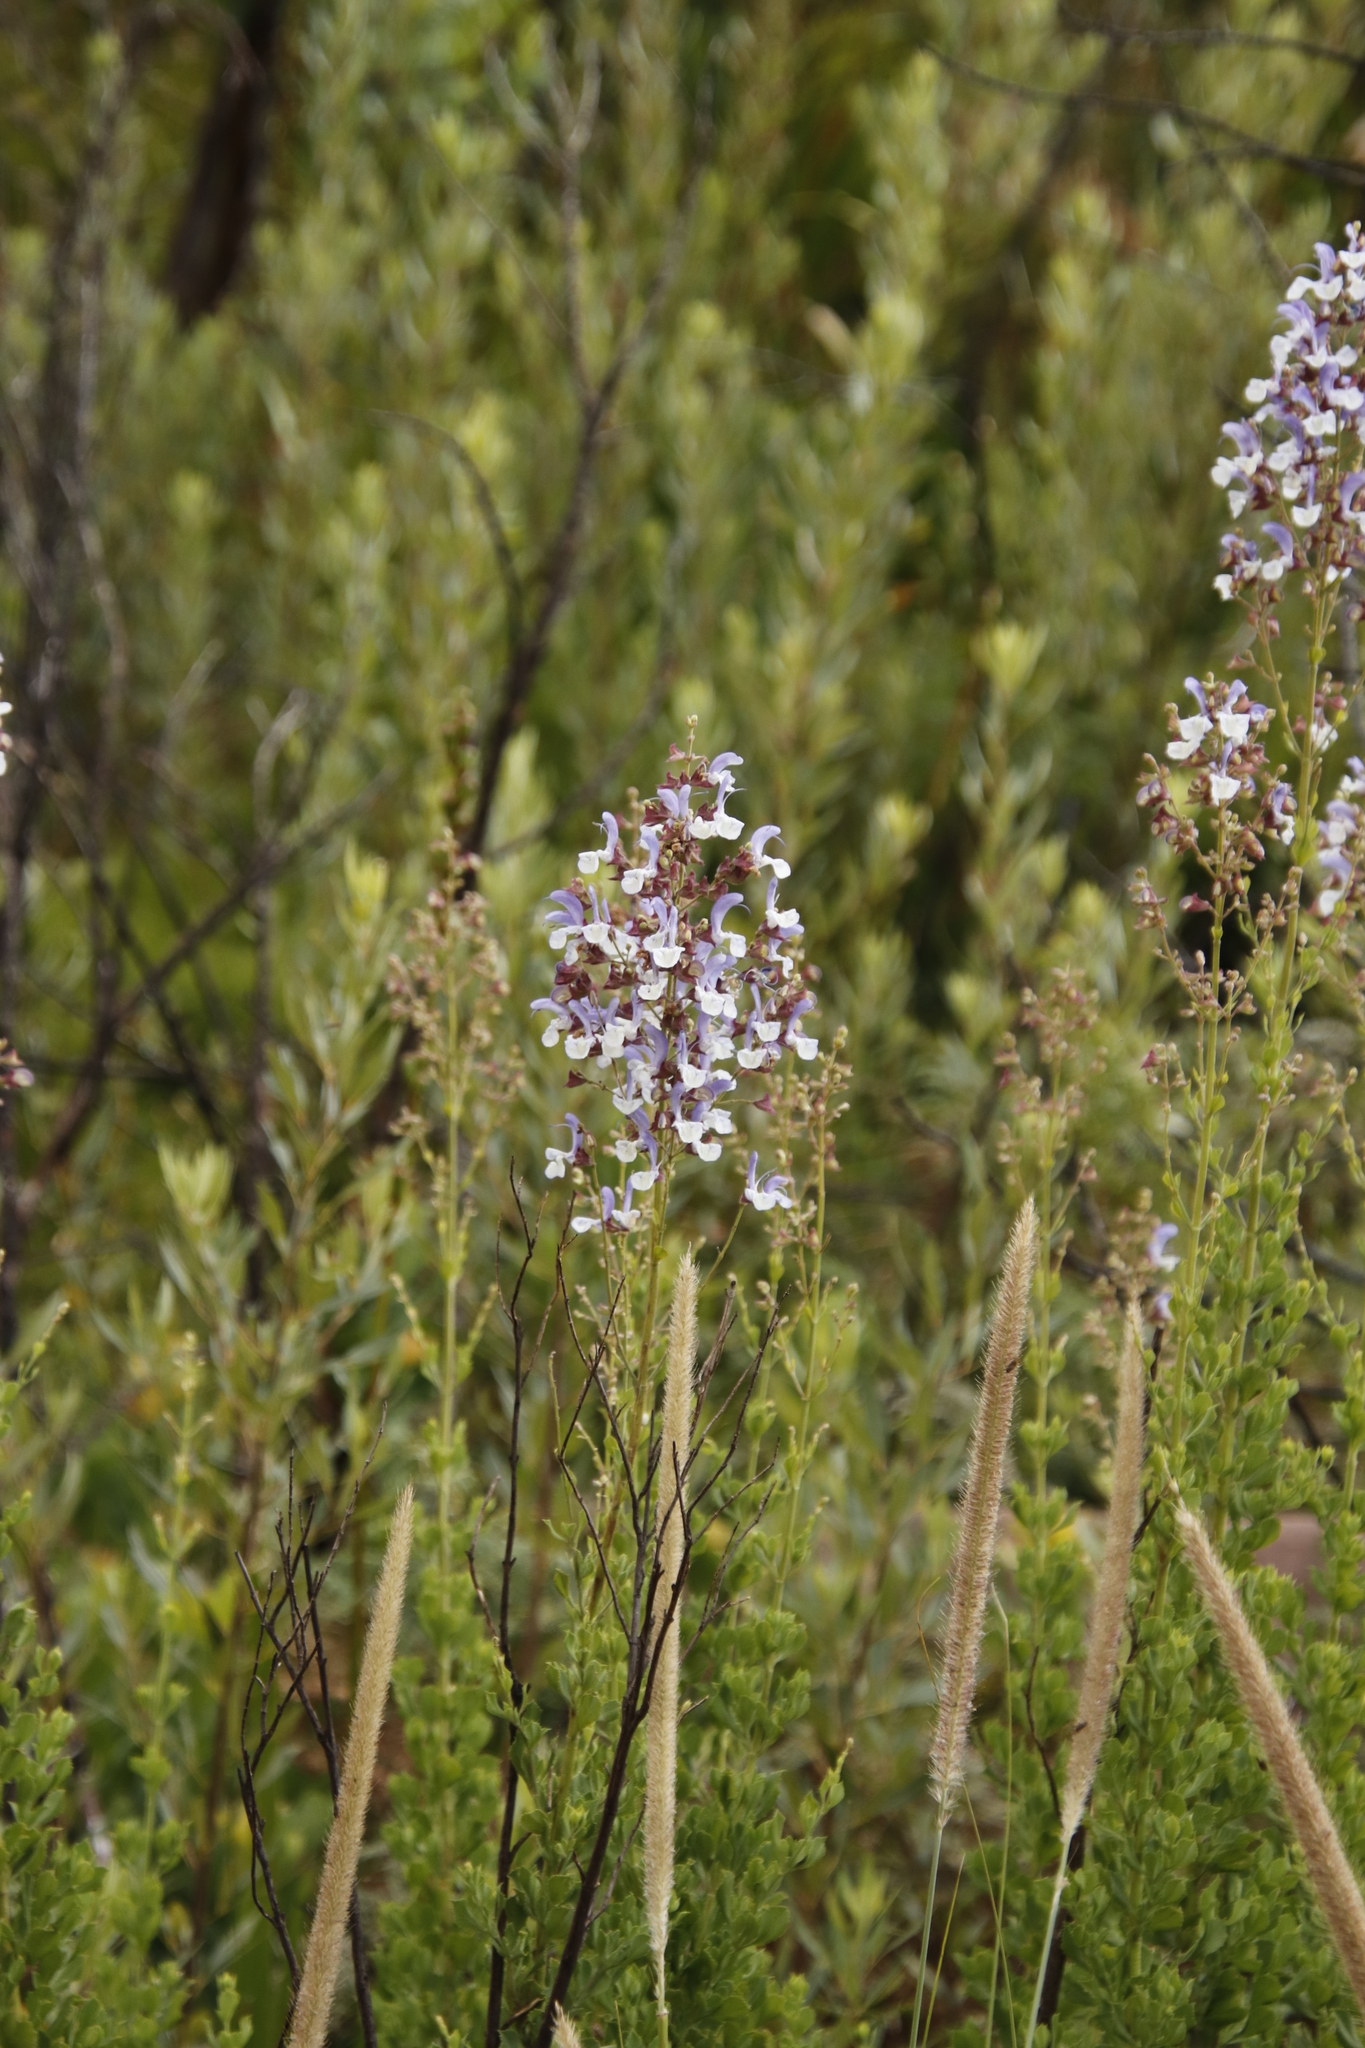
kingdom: Plantae
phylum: Tracheophyta
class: Magnoliopsida
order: Lamiales
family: Lamiaceae
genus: Salvia
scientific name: Salvia chamelaeagnea
